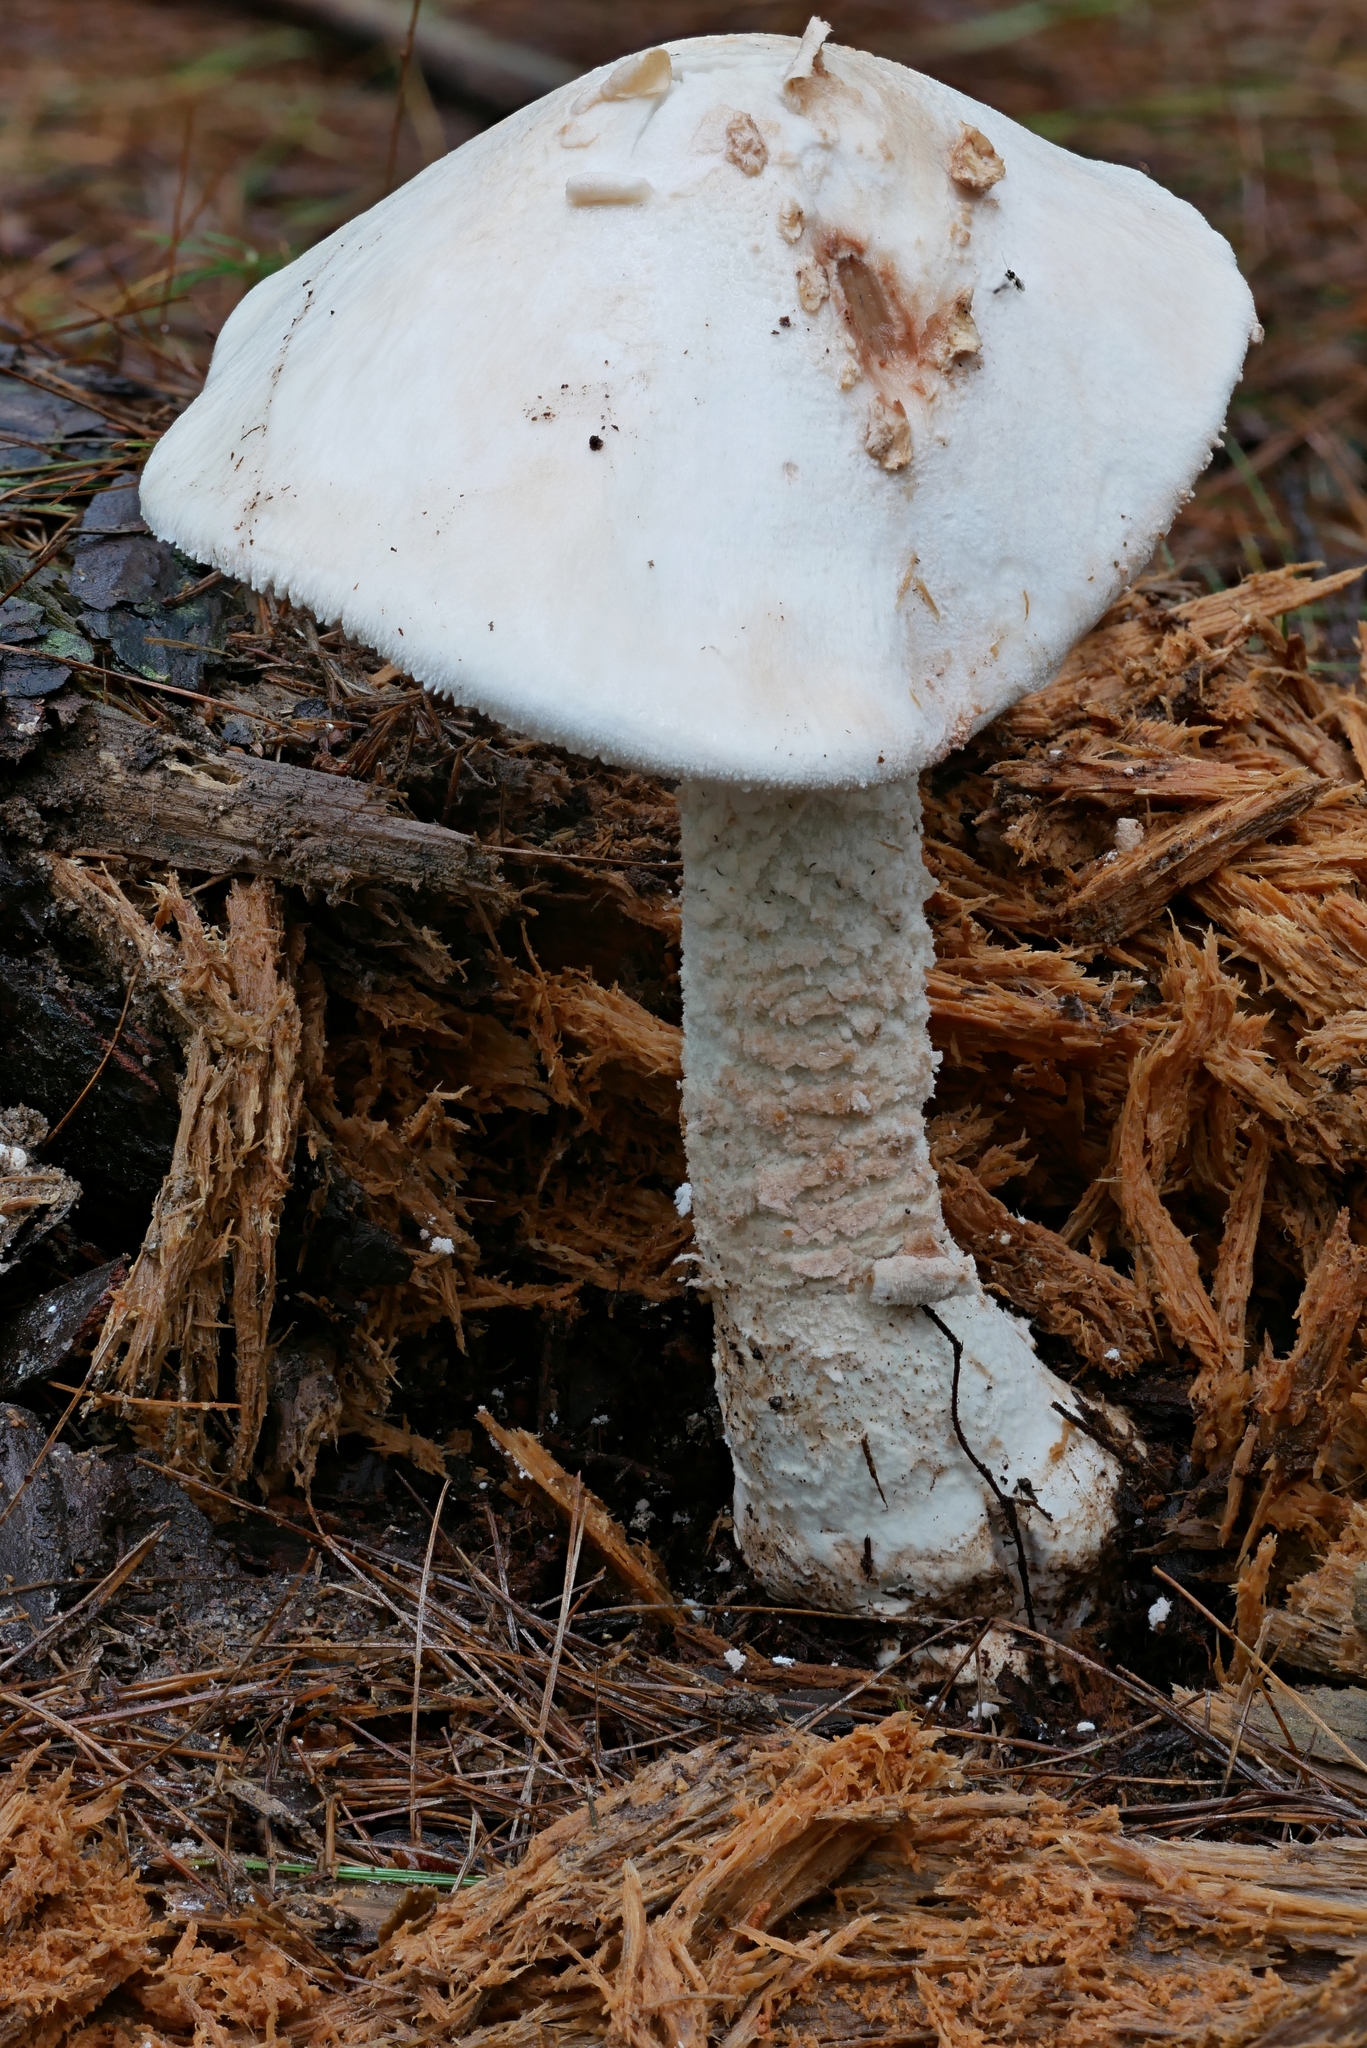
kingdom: Fungi
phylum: Basidiomycota
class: Agaricomycetes
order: Agaricales
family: Amanitaceae
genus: Amanita
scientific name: Amanita daucipes
